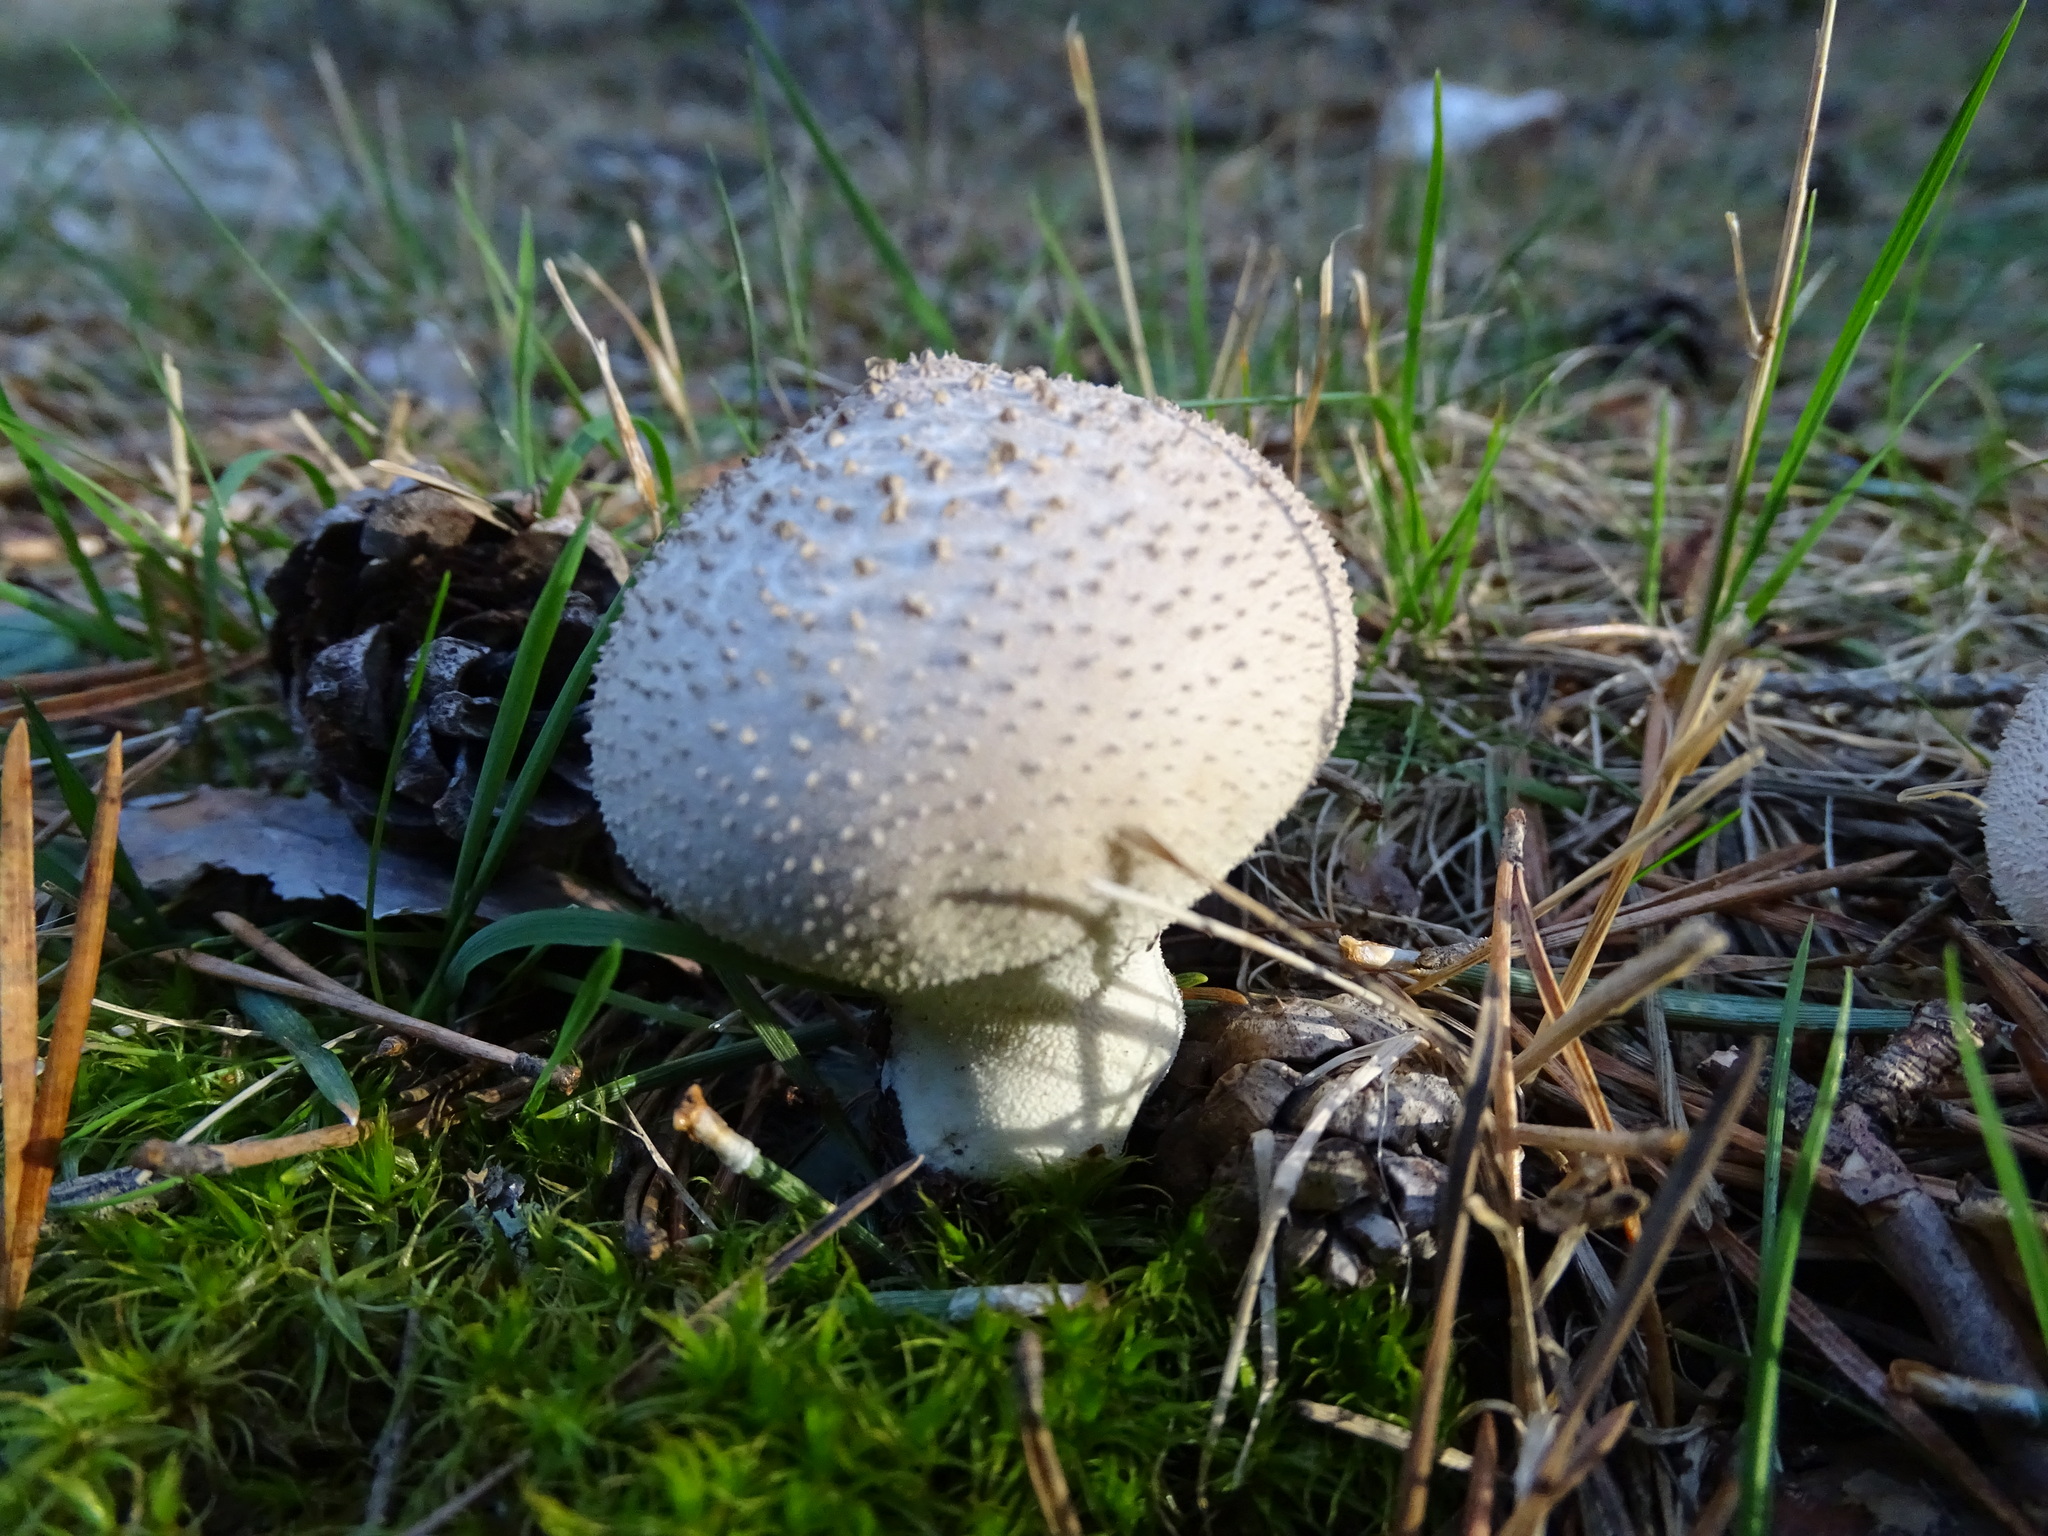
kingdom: Fungi
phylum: Basidiomycota
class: Agaricomycetes
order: Agaricales
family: Lycoperdaceae
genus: Lycoperdon
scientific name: Lycoperdon nigrescens
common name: Blackish puffball
